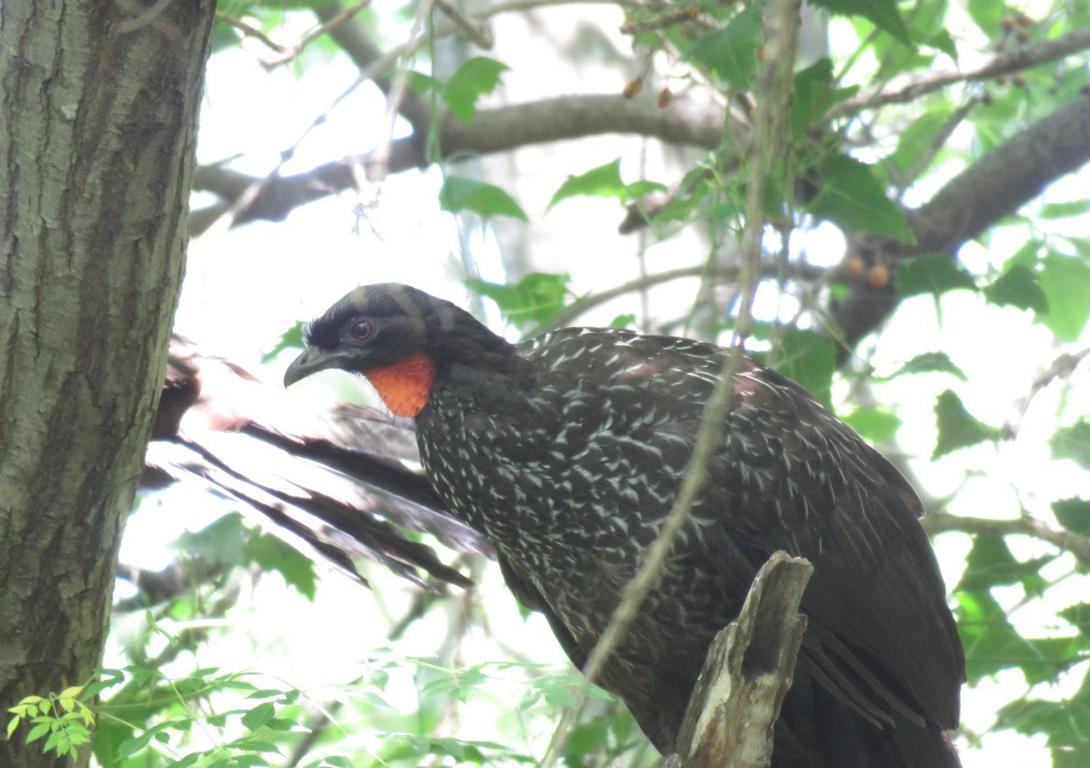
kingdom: Animalia
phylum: Chordata
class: Aves
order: Galliformes
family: Cracidae
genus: Penelope
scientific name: Penelope obscura
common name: Dusky-legged guan
